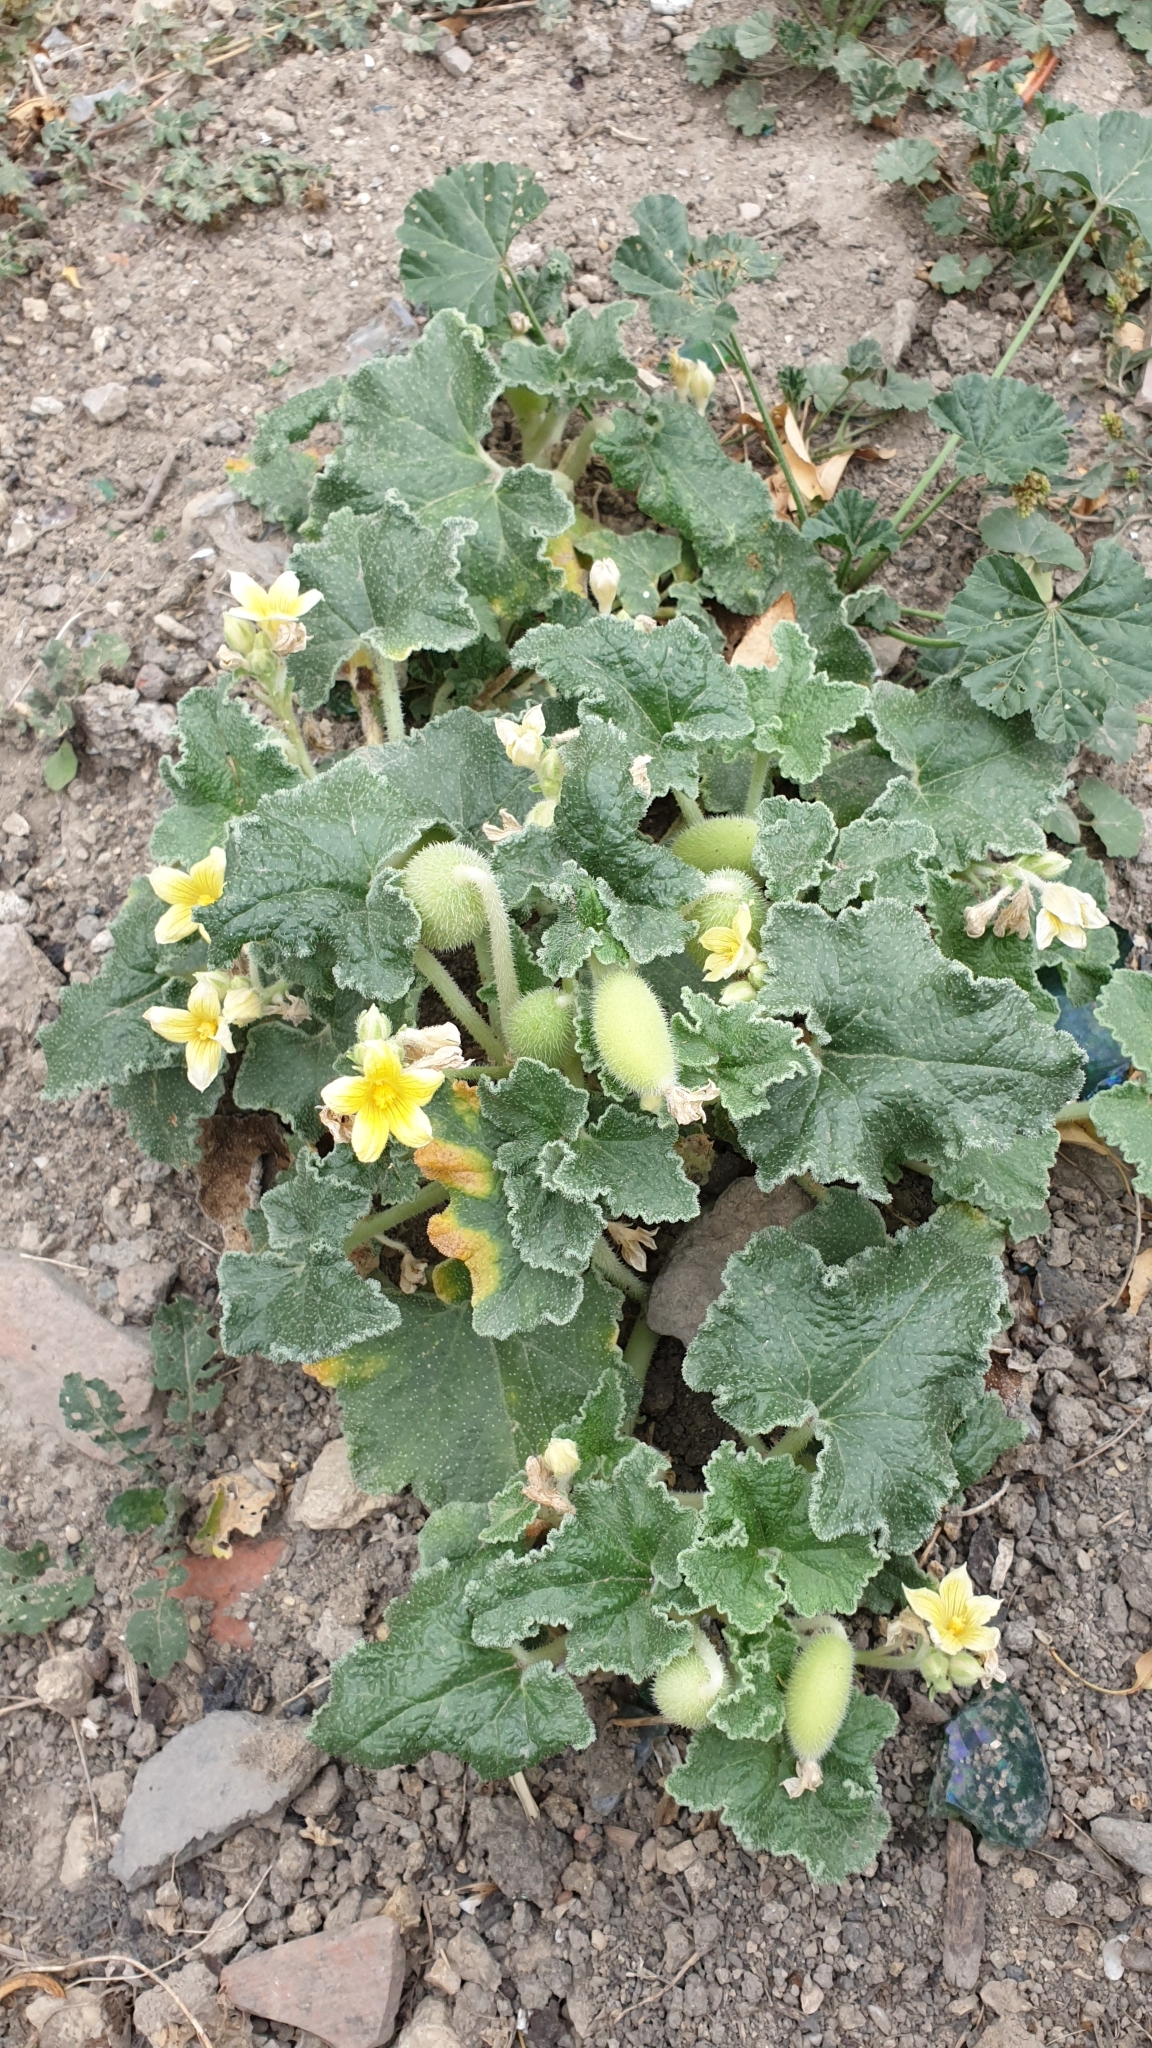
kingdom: Plantae
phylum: Tracheophyta
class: Magnoliopsida
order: Cucurbitales
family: Cucurbitaceae
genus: Ecballium
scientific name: Ecballium elaterium
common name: Squirting cucumber
